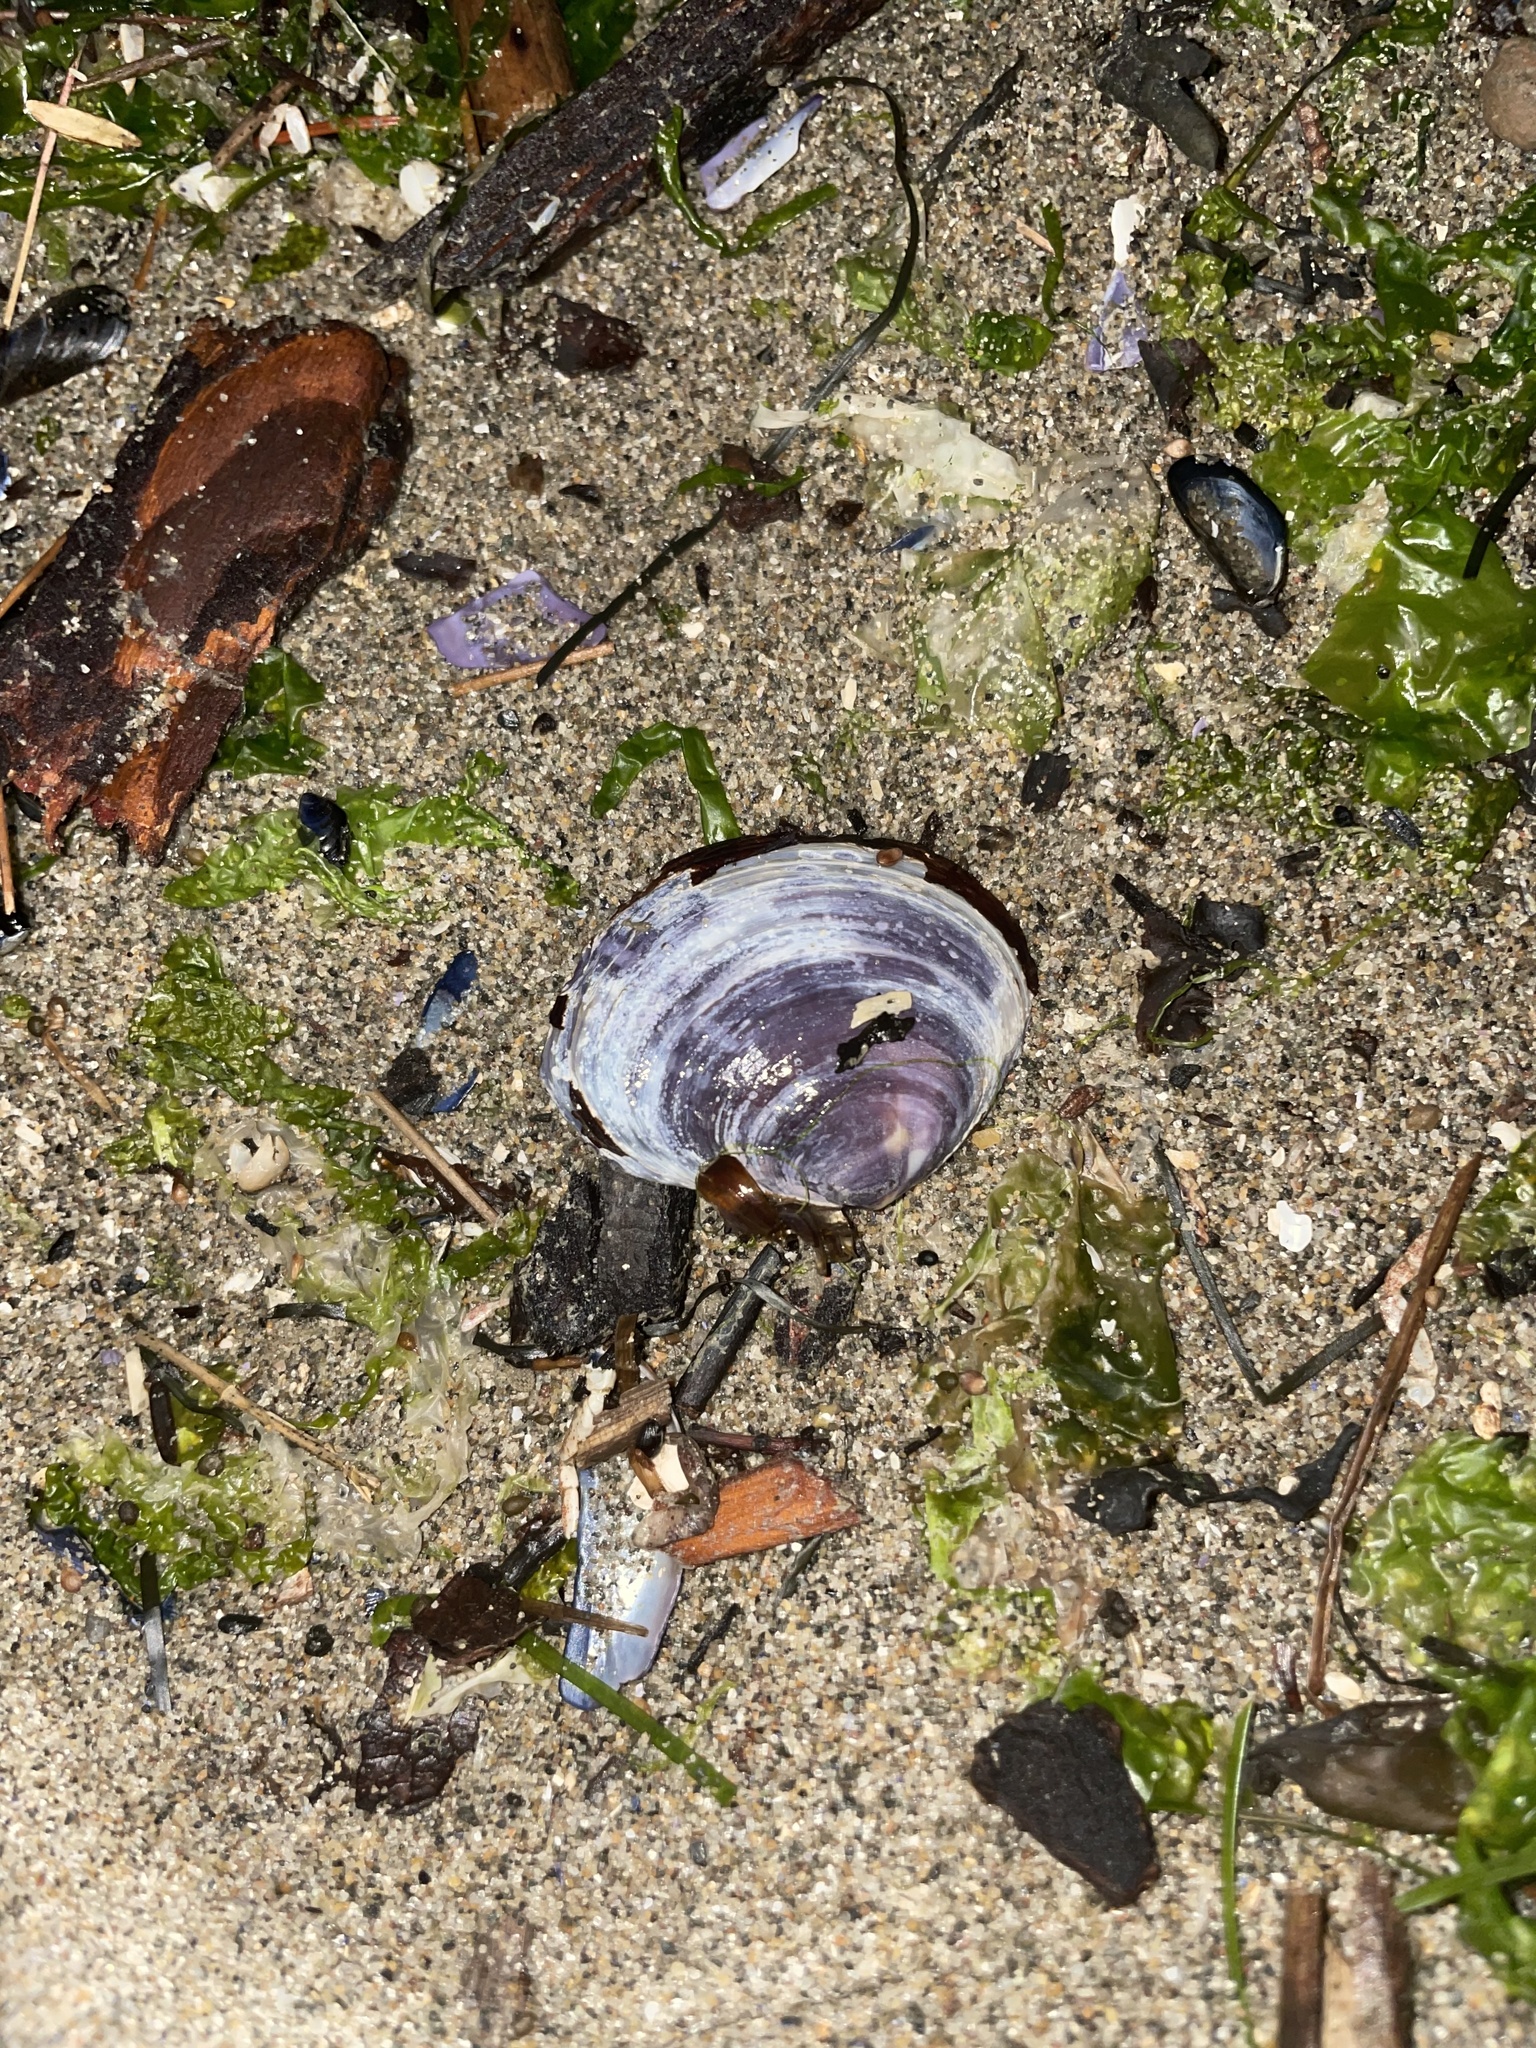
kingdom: Animalia
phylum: Mollusca
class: Bivalvia
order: Cardiida
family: Psammobiidae
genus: Nuttallia
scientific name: Nuttallia obscurata
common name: Purple mahogany-clam
